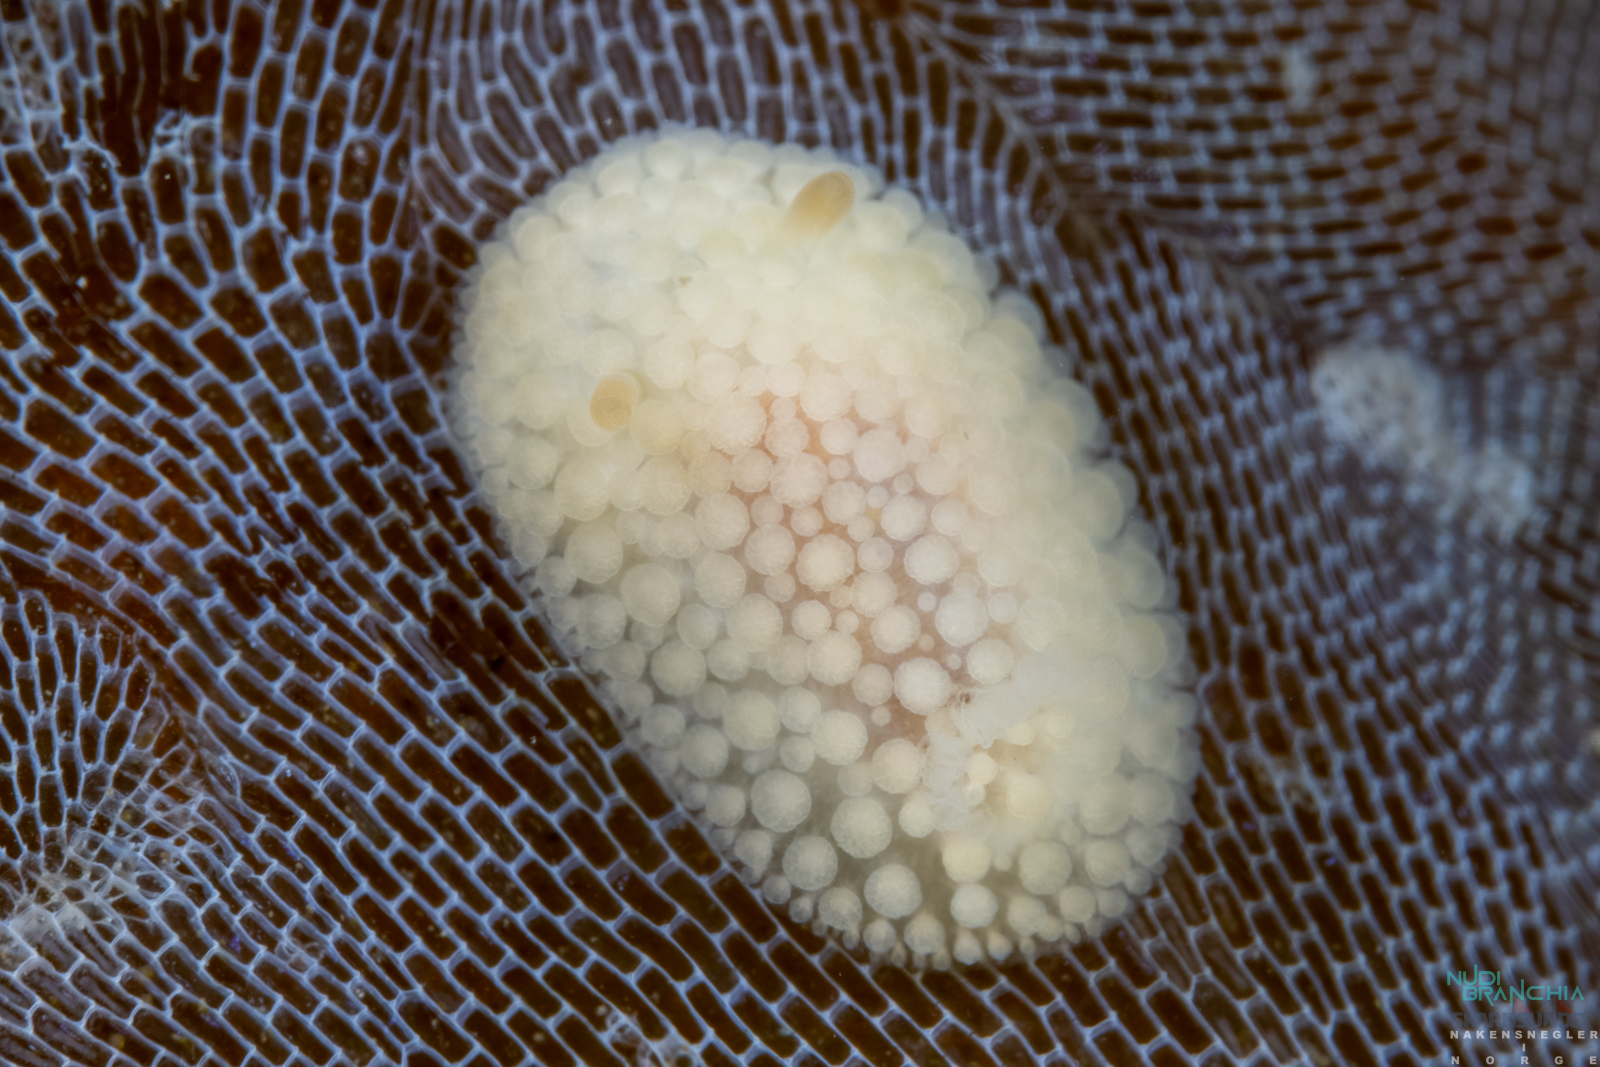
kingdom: Animalia
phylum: Mollusca
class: Gastropoda
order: Nudibranchia
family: Onchidorididae
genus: Onchidoris
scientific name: Onchidoris muricata
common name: Rough doris
